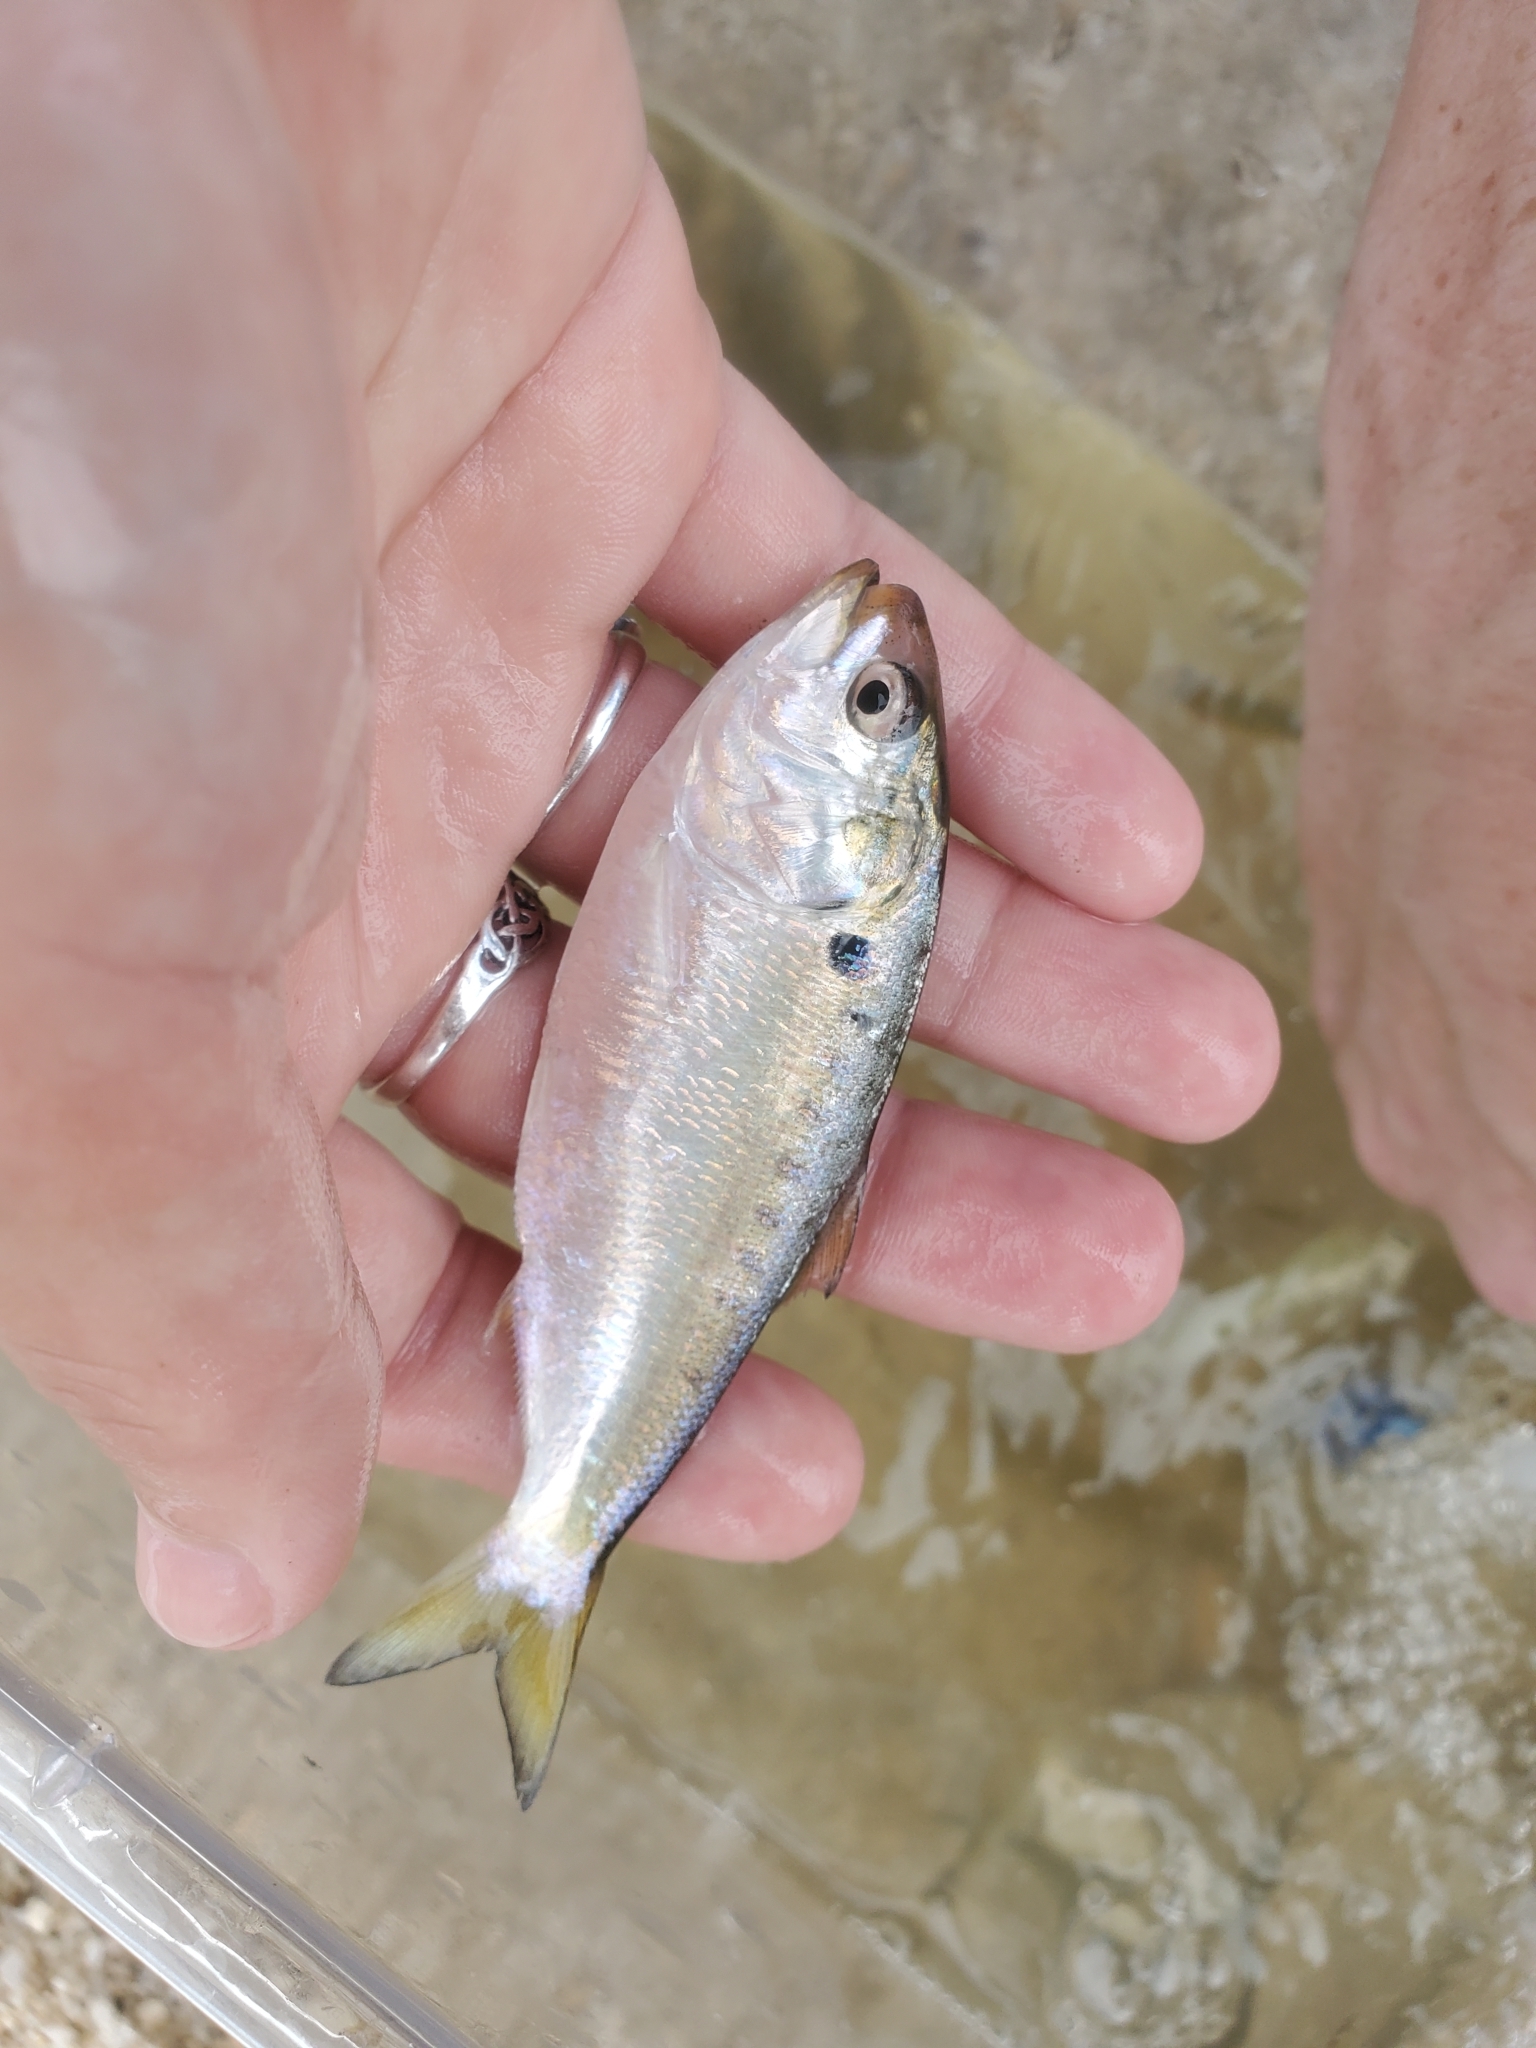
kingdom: Animalia
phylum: Chordata
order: Clupeiformes
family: Clupeidae
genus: Brevoortia
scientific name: Brevoortia tyrannus
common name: Atlantic menhaden
